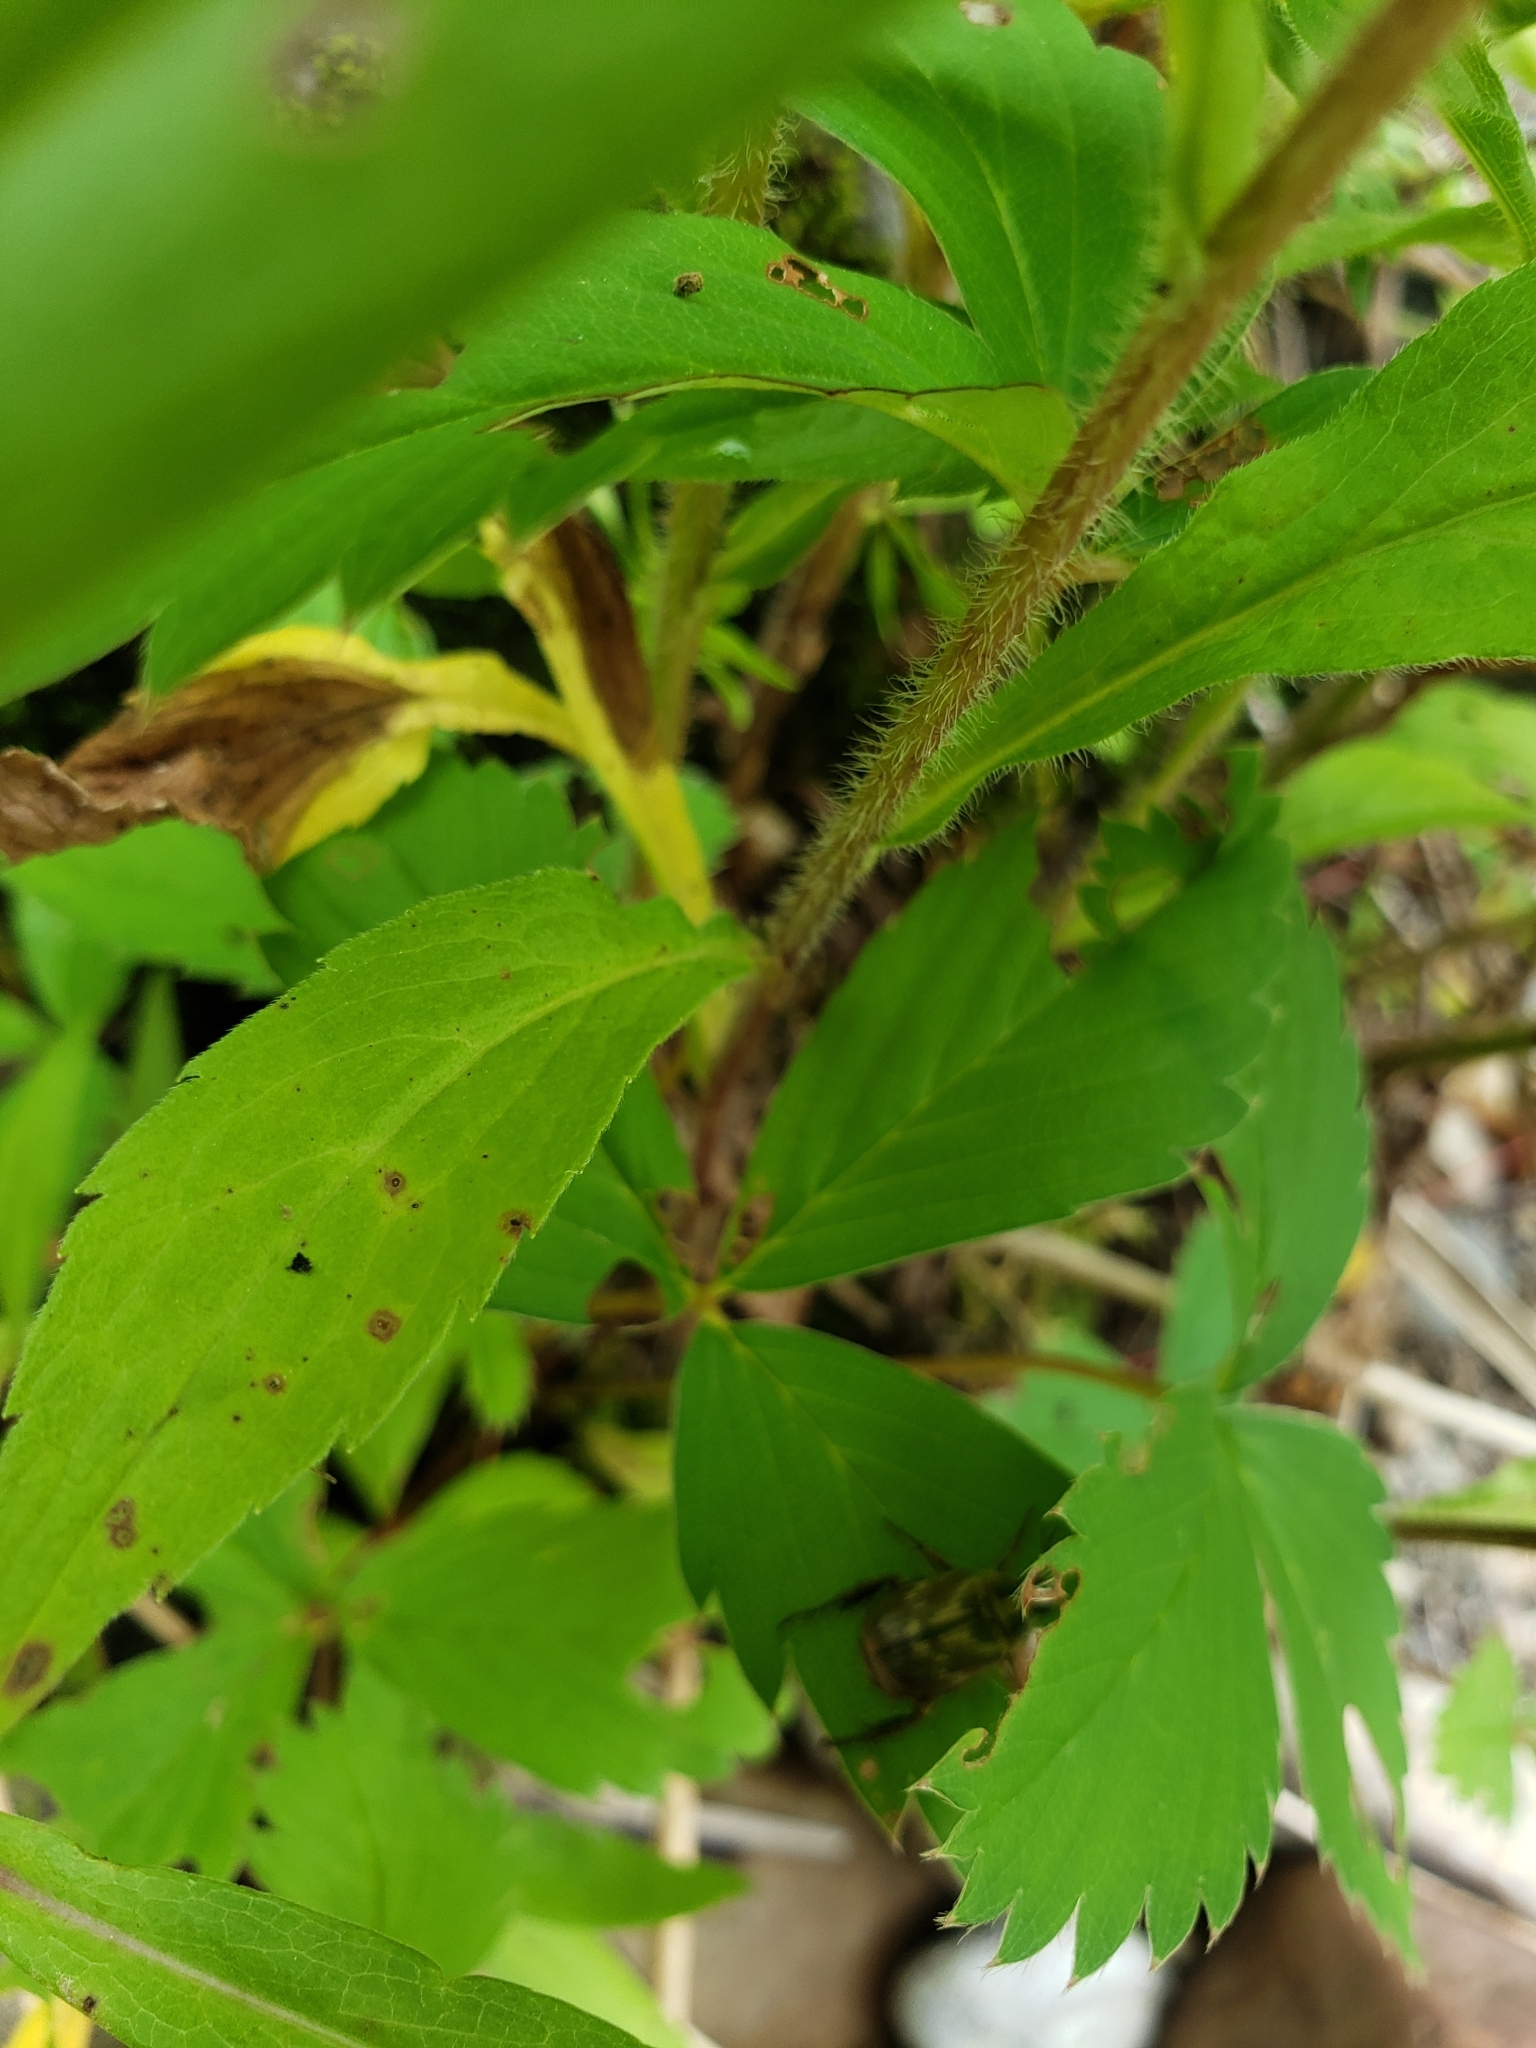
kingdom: Animalia
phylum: Arthropoda
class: Insecta
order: Coleoptera
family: Scarabaeidae
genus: Exomala
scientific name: Exomala orientalis
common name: Oriental beetle
